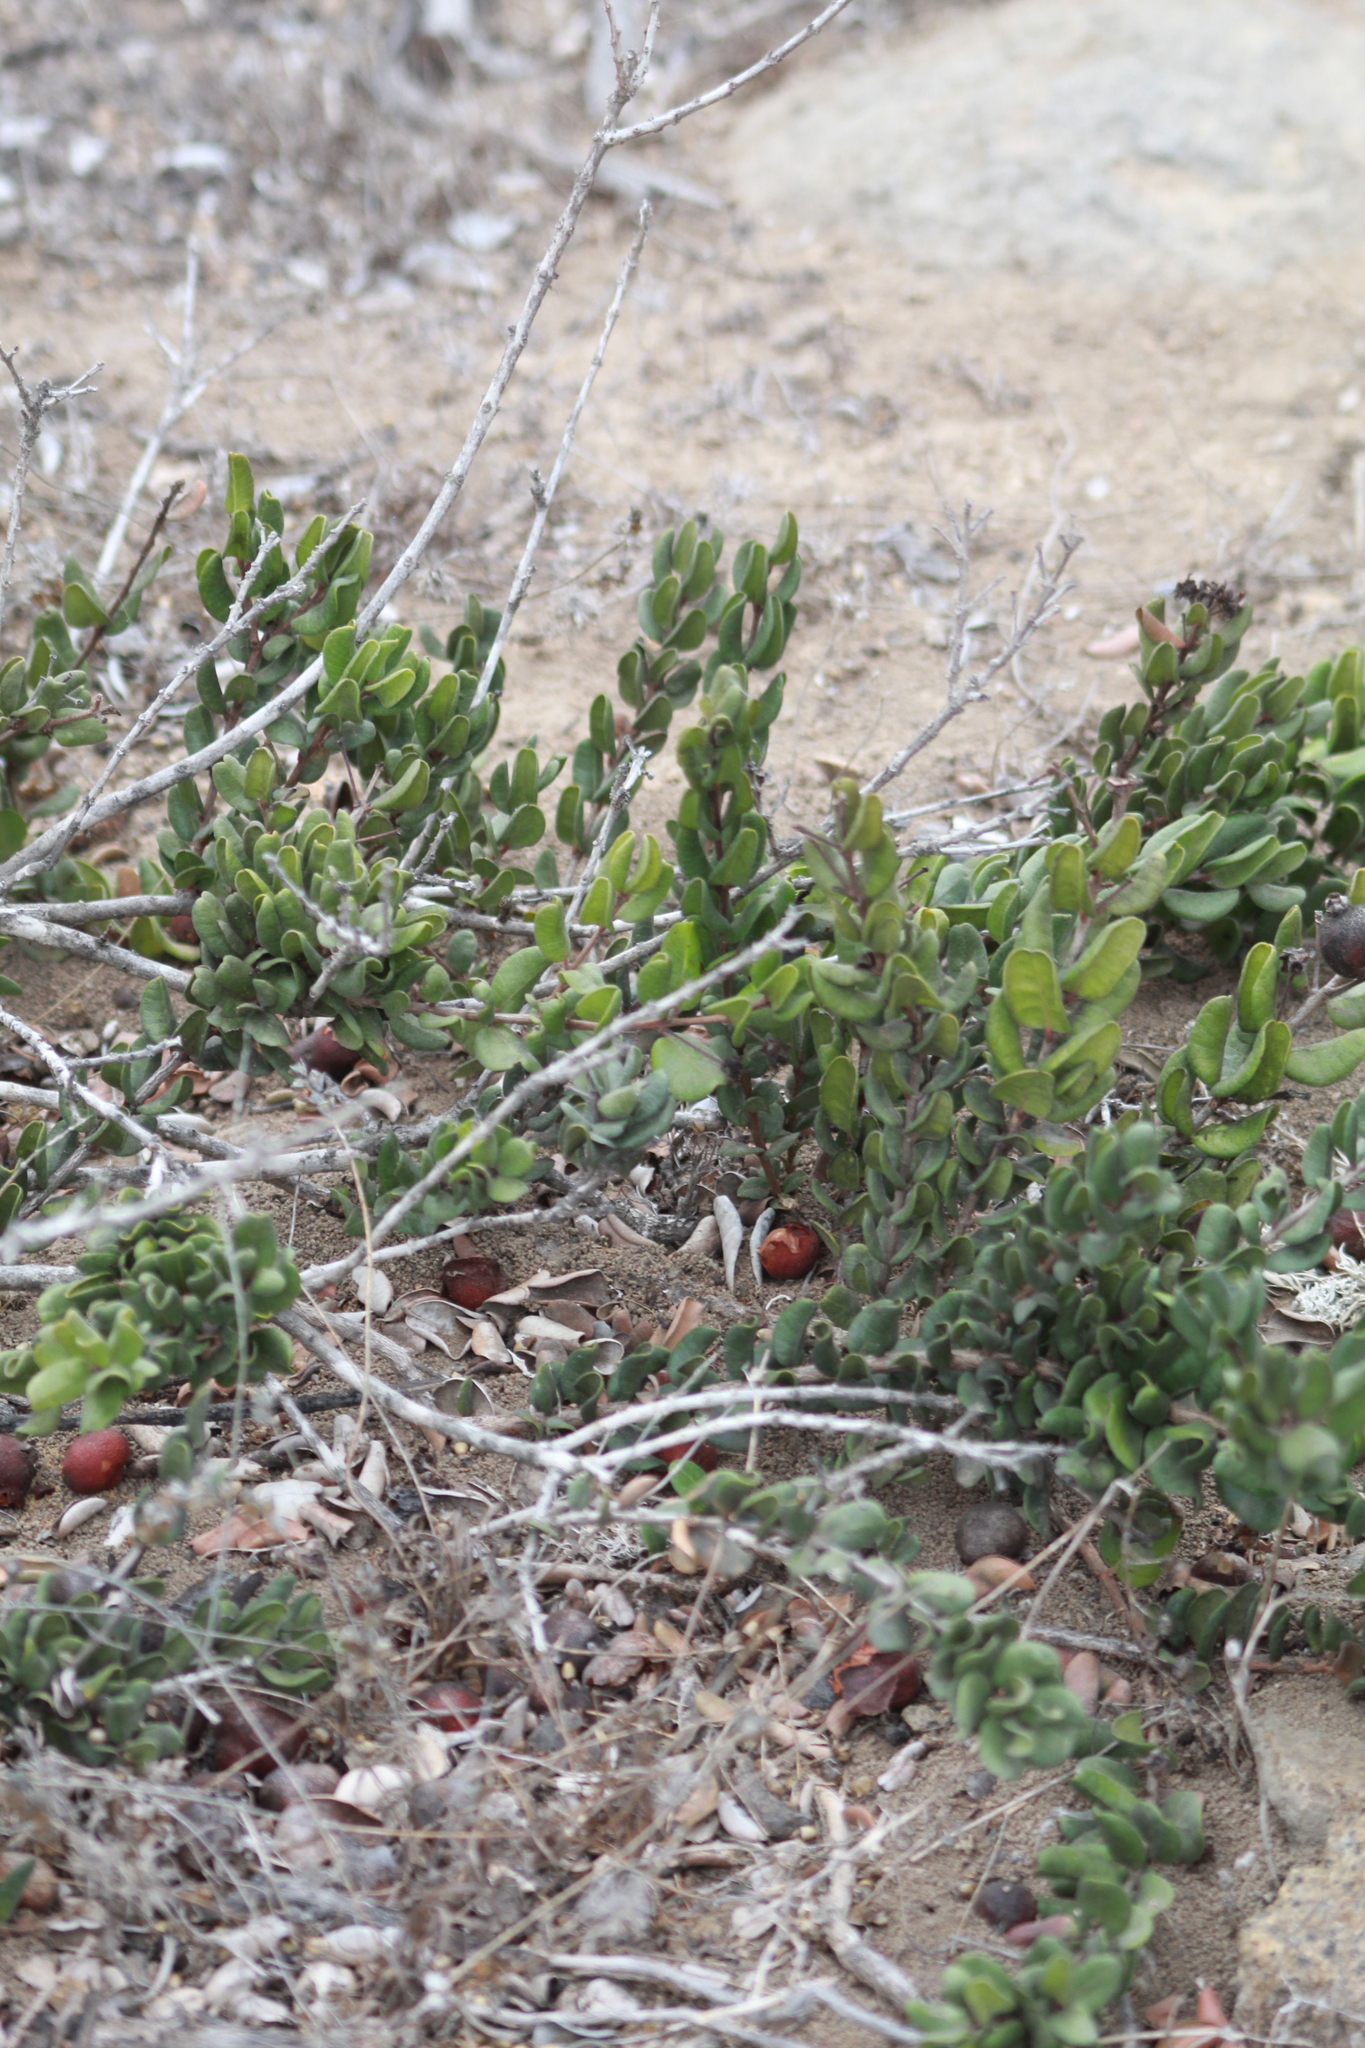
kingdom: Plantae
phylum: Tracheophyta
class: Magnoliopsida
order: Myrtales
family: Myrtaceae
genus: Myrcianthes
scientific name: Myrcianthes coquimbensis
